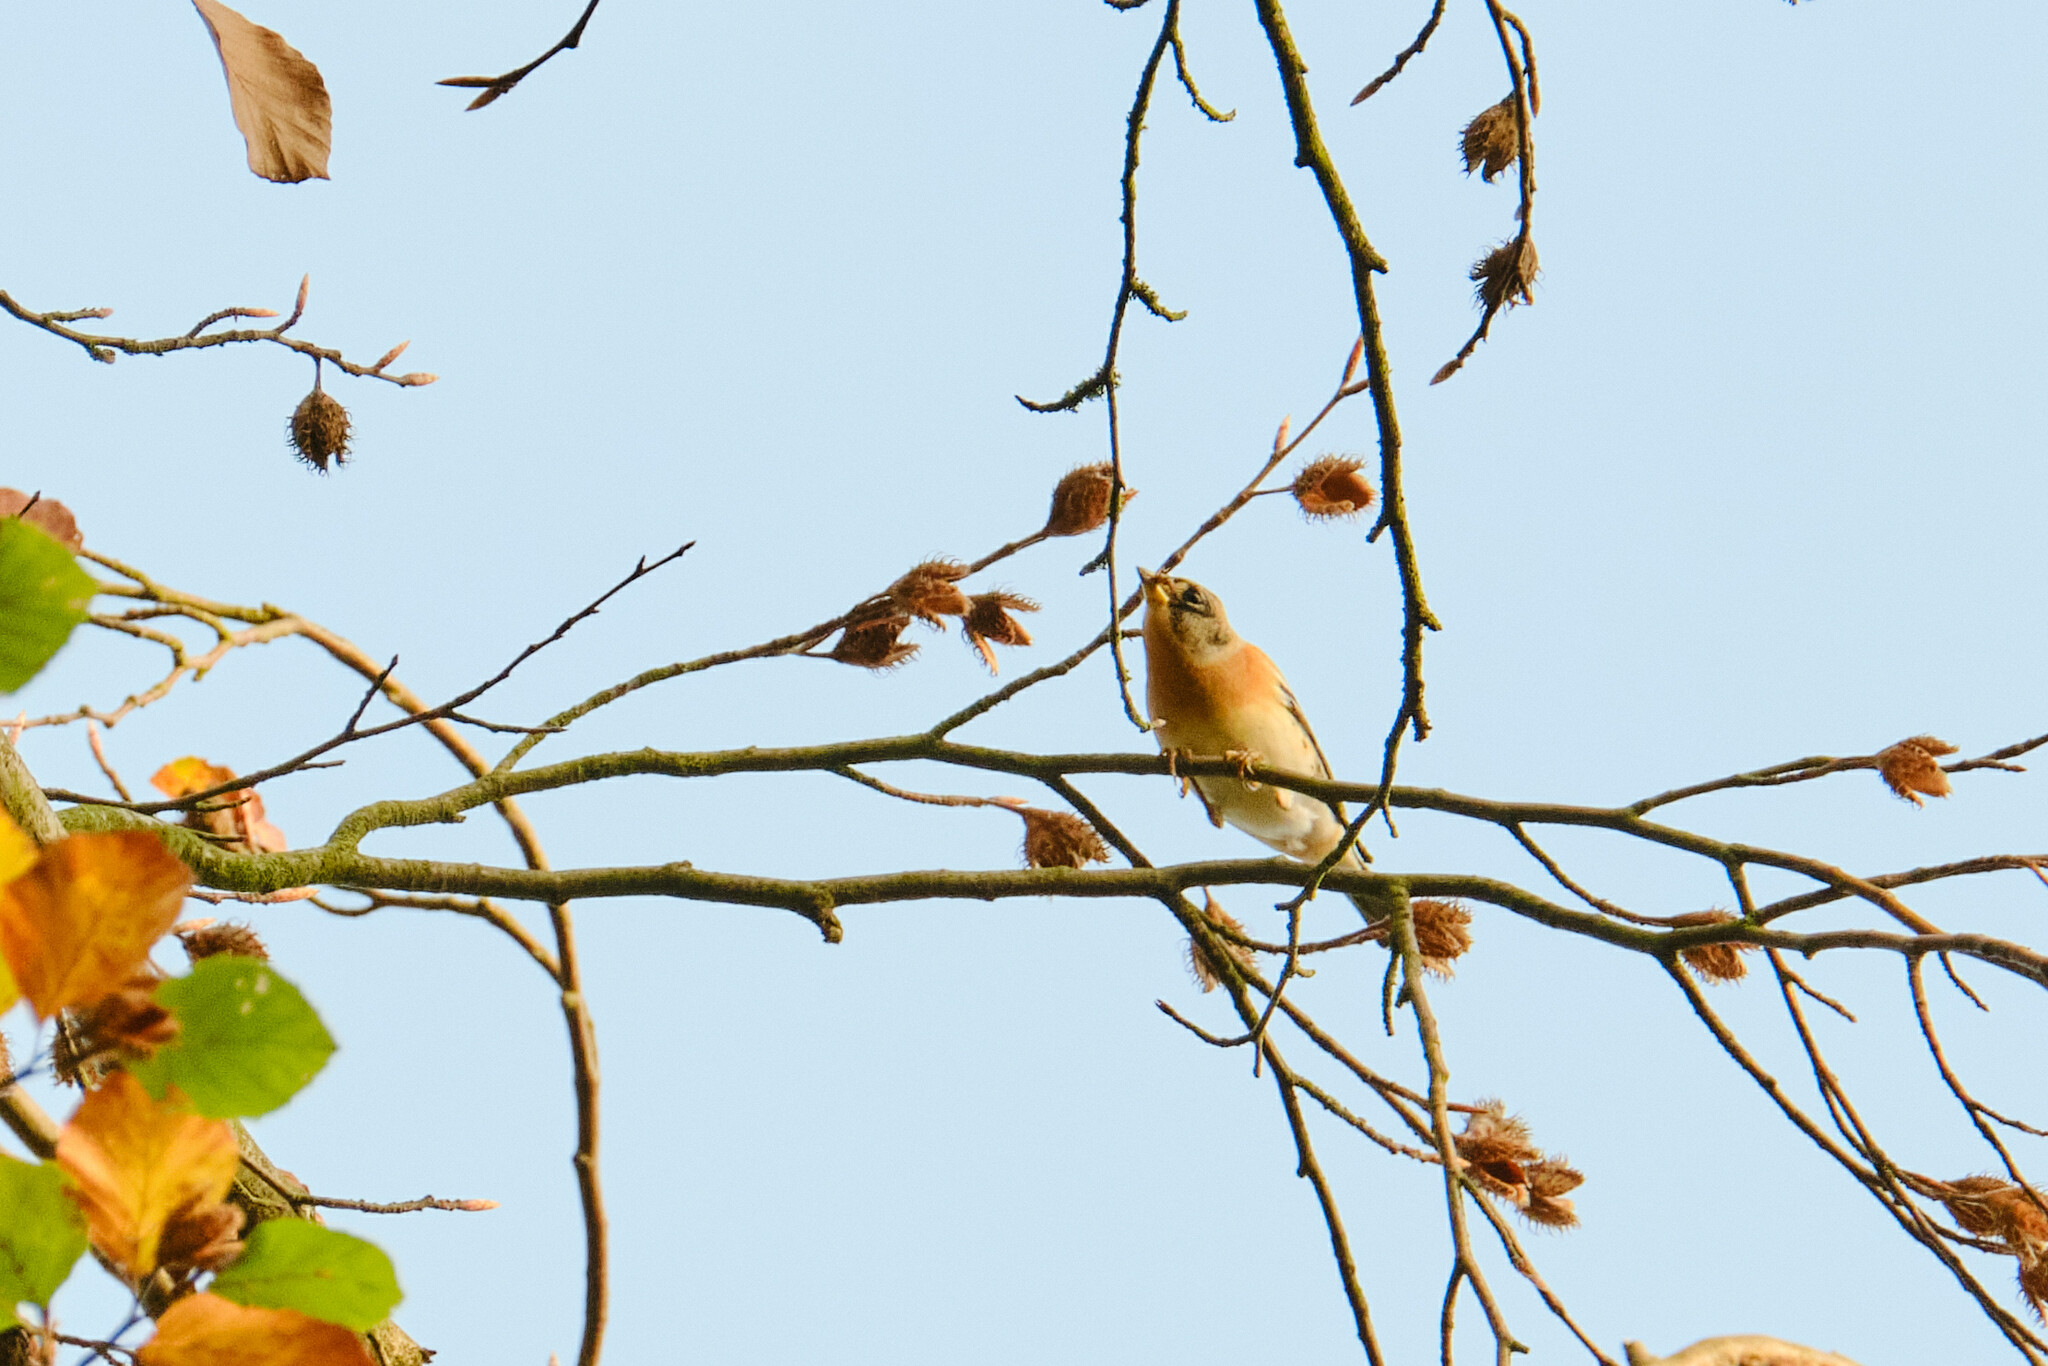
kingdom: Animalia
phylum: Chordata
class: Aves
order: Passeriformes
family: Fringillidae
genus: Fringilla
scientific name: Fringilla montifringilla
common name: Brambling
